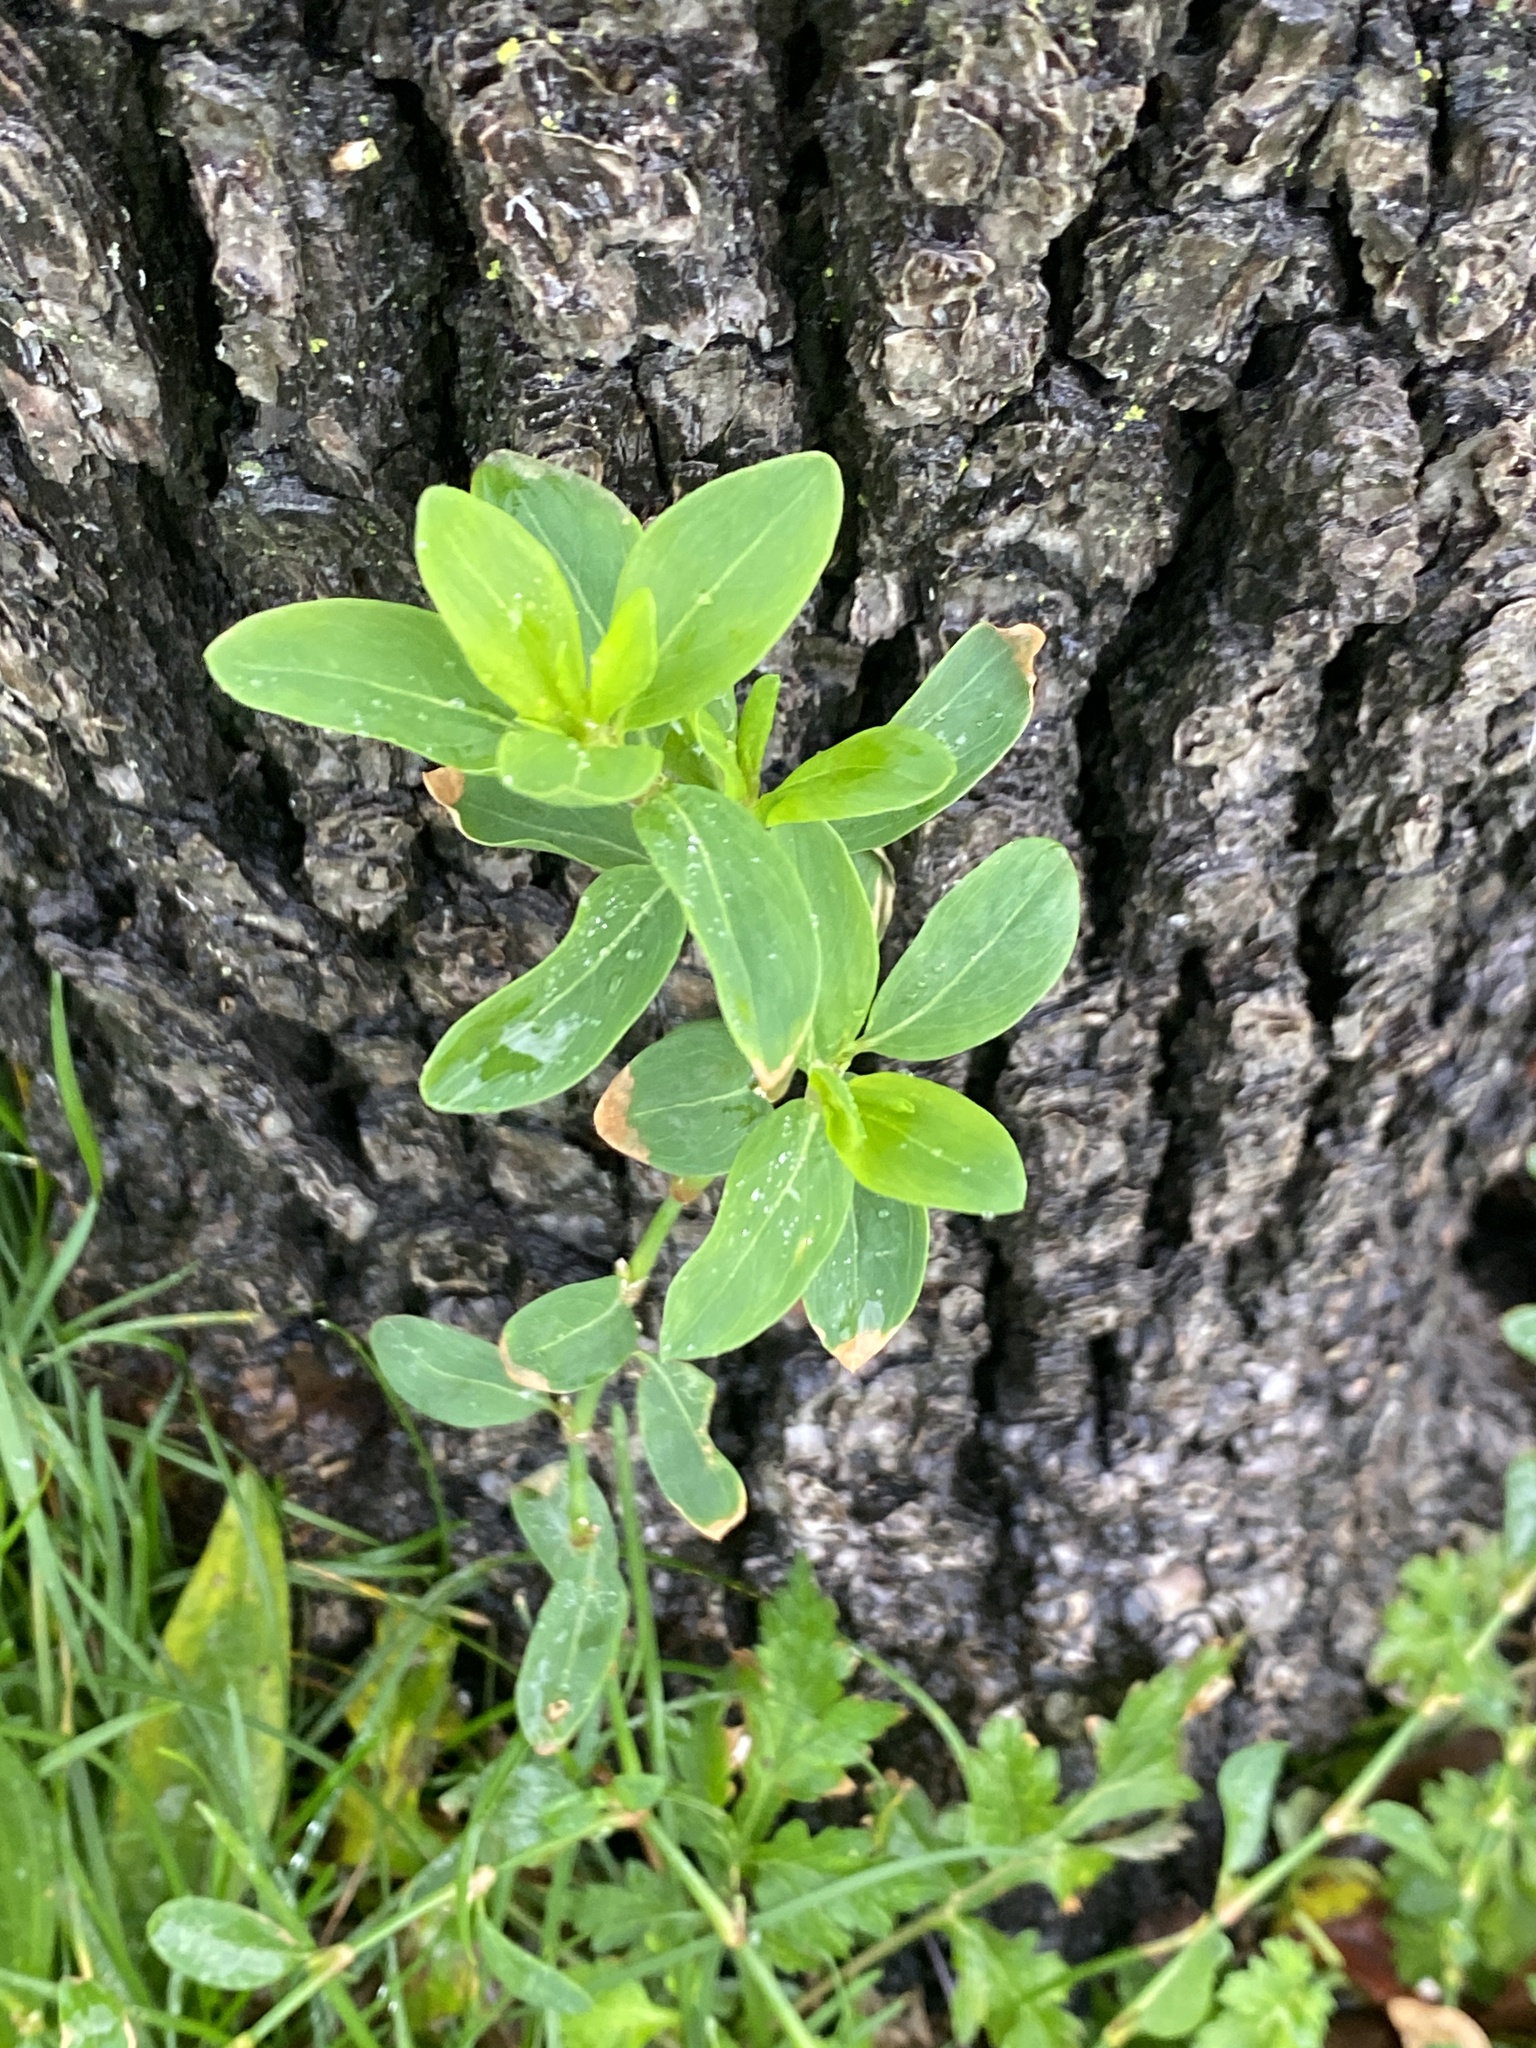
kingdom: Plantae
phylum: Tracheophyta
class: Magnoliopsida
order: Caryophyllales
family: Polygonaceae
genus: Polygonum
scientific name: Polygonum aviculare
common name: Prostrate knotweed
